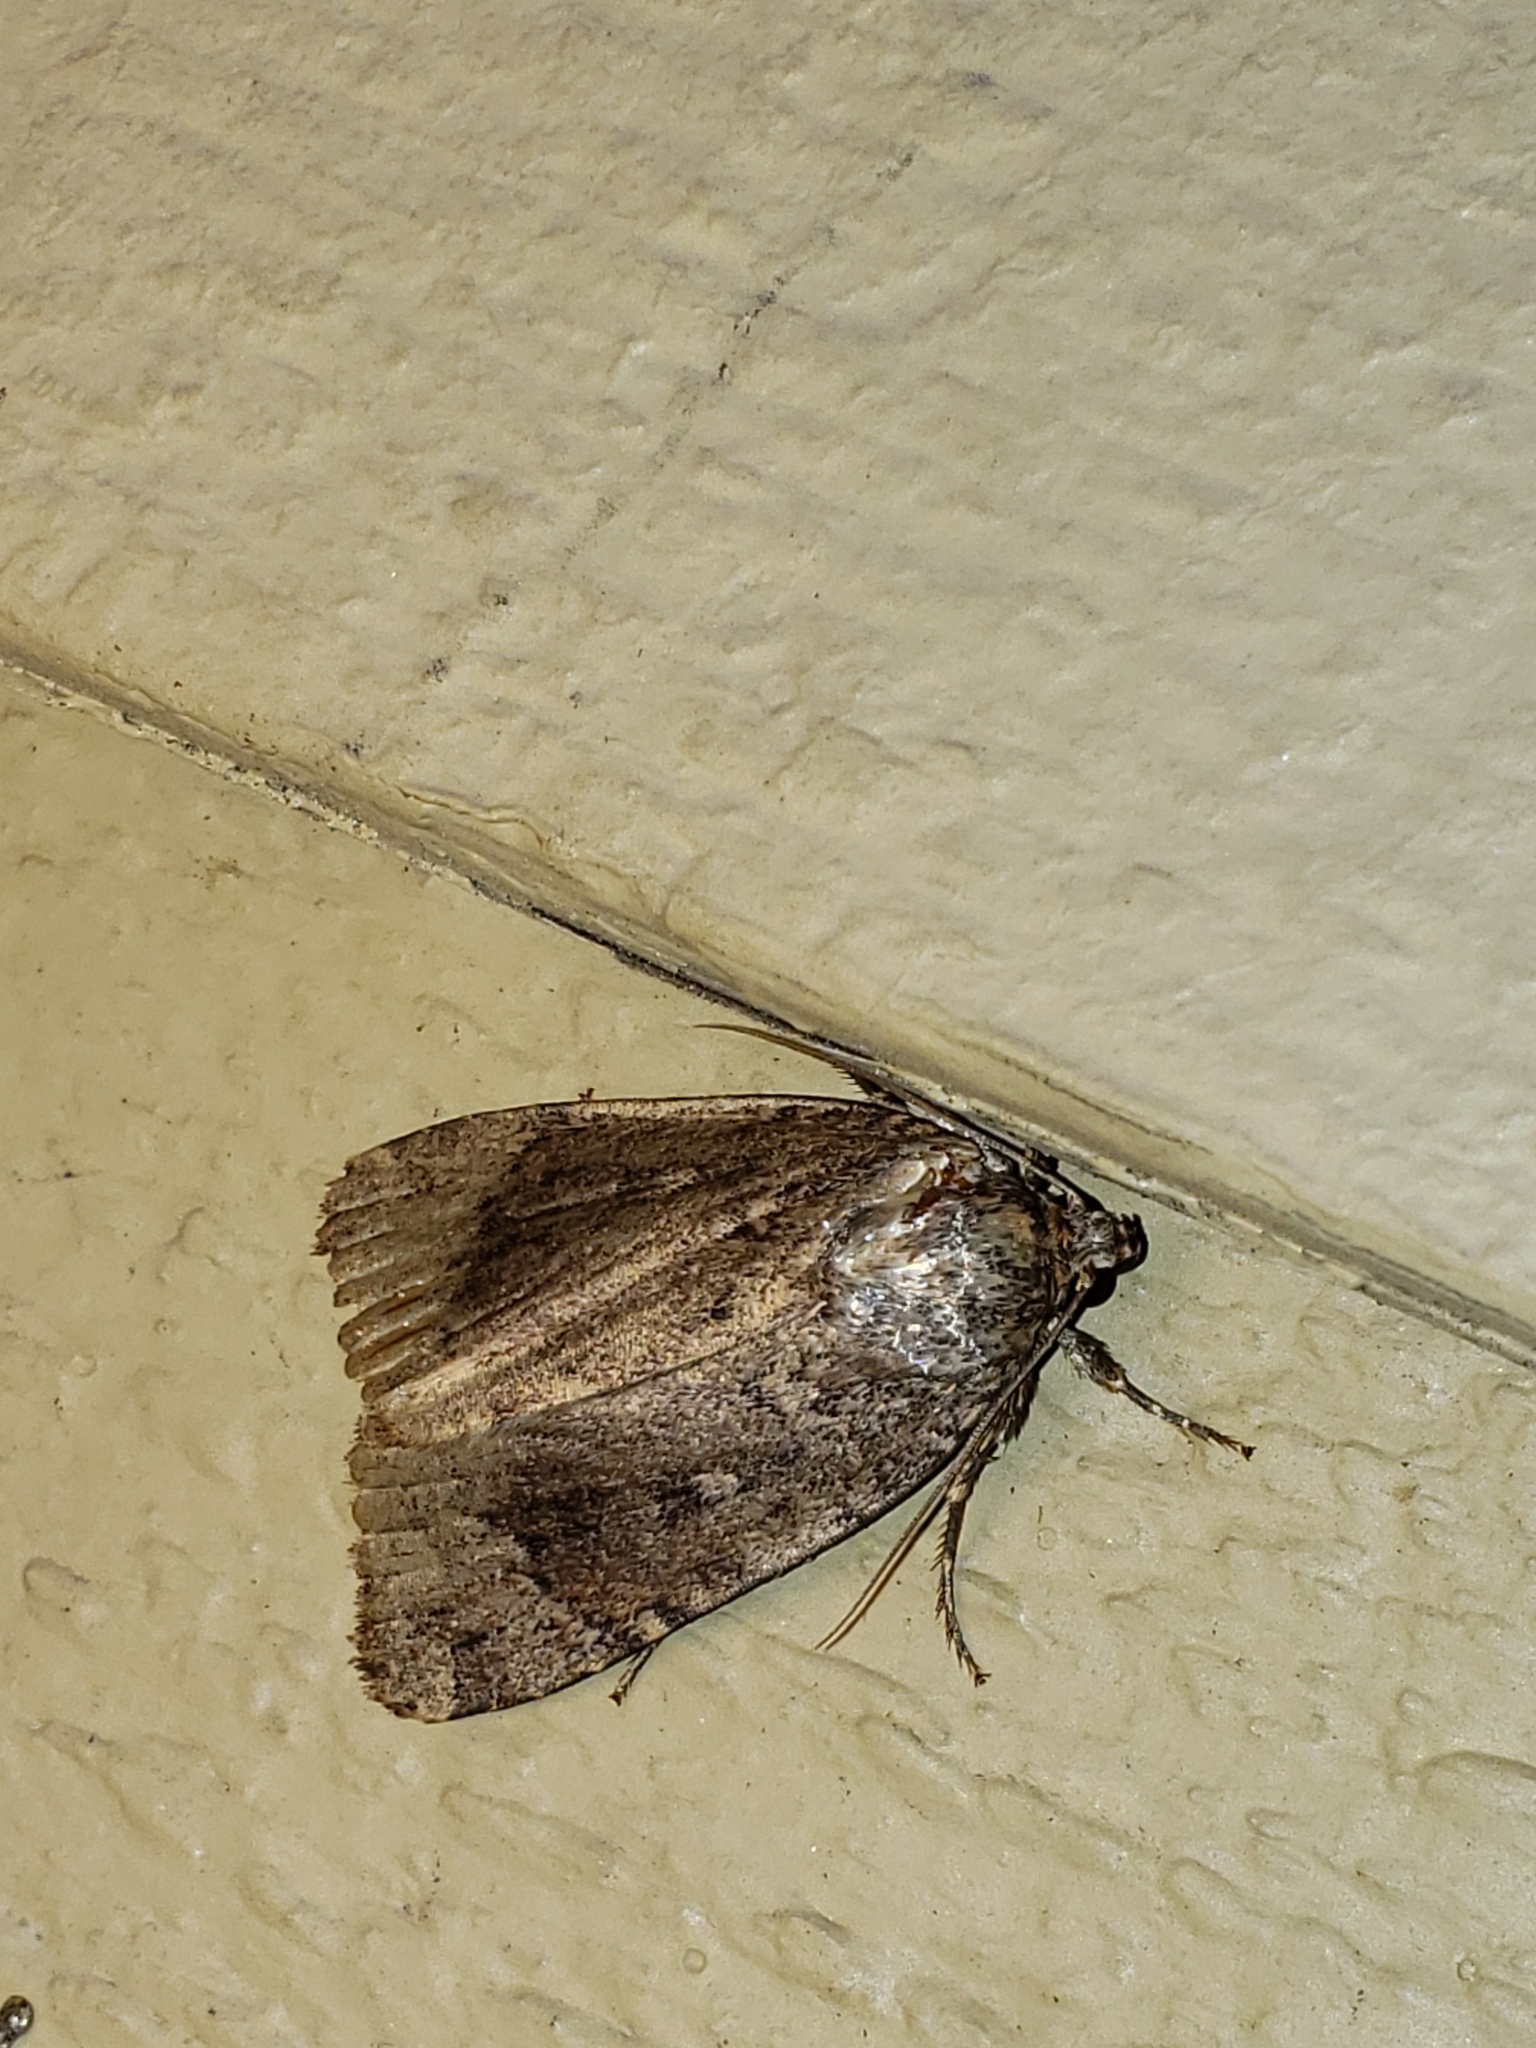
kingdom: Animalia
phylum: Arthropoda
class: Insecta
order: Lepidoptera
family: Noctuidae
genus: Amphipyra
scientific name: Amphipyra pyramidoides
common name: American copper underwing
